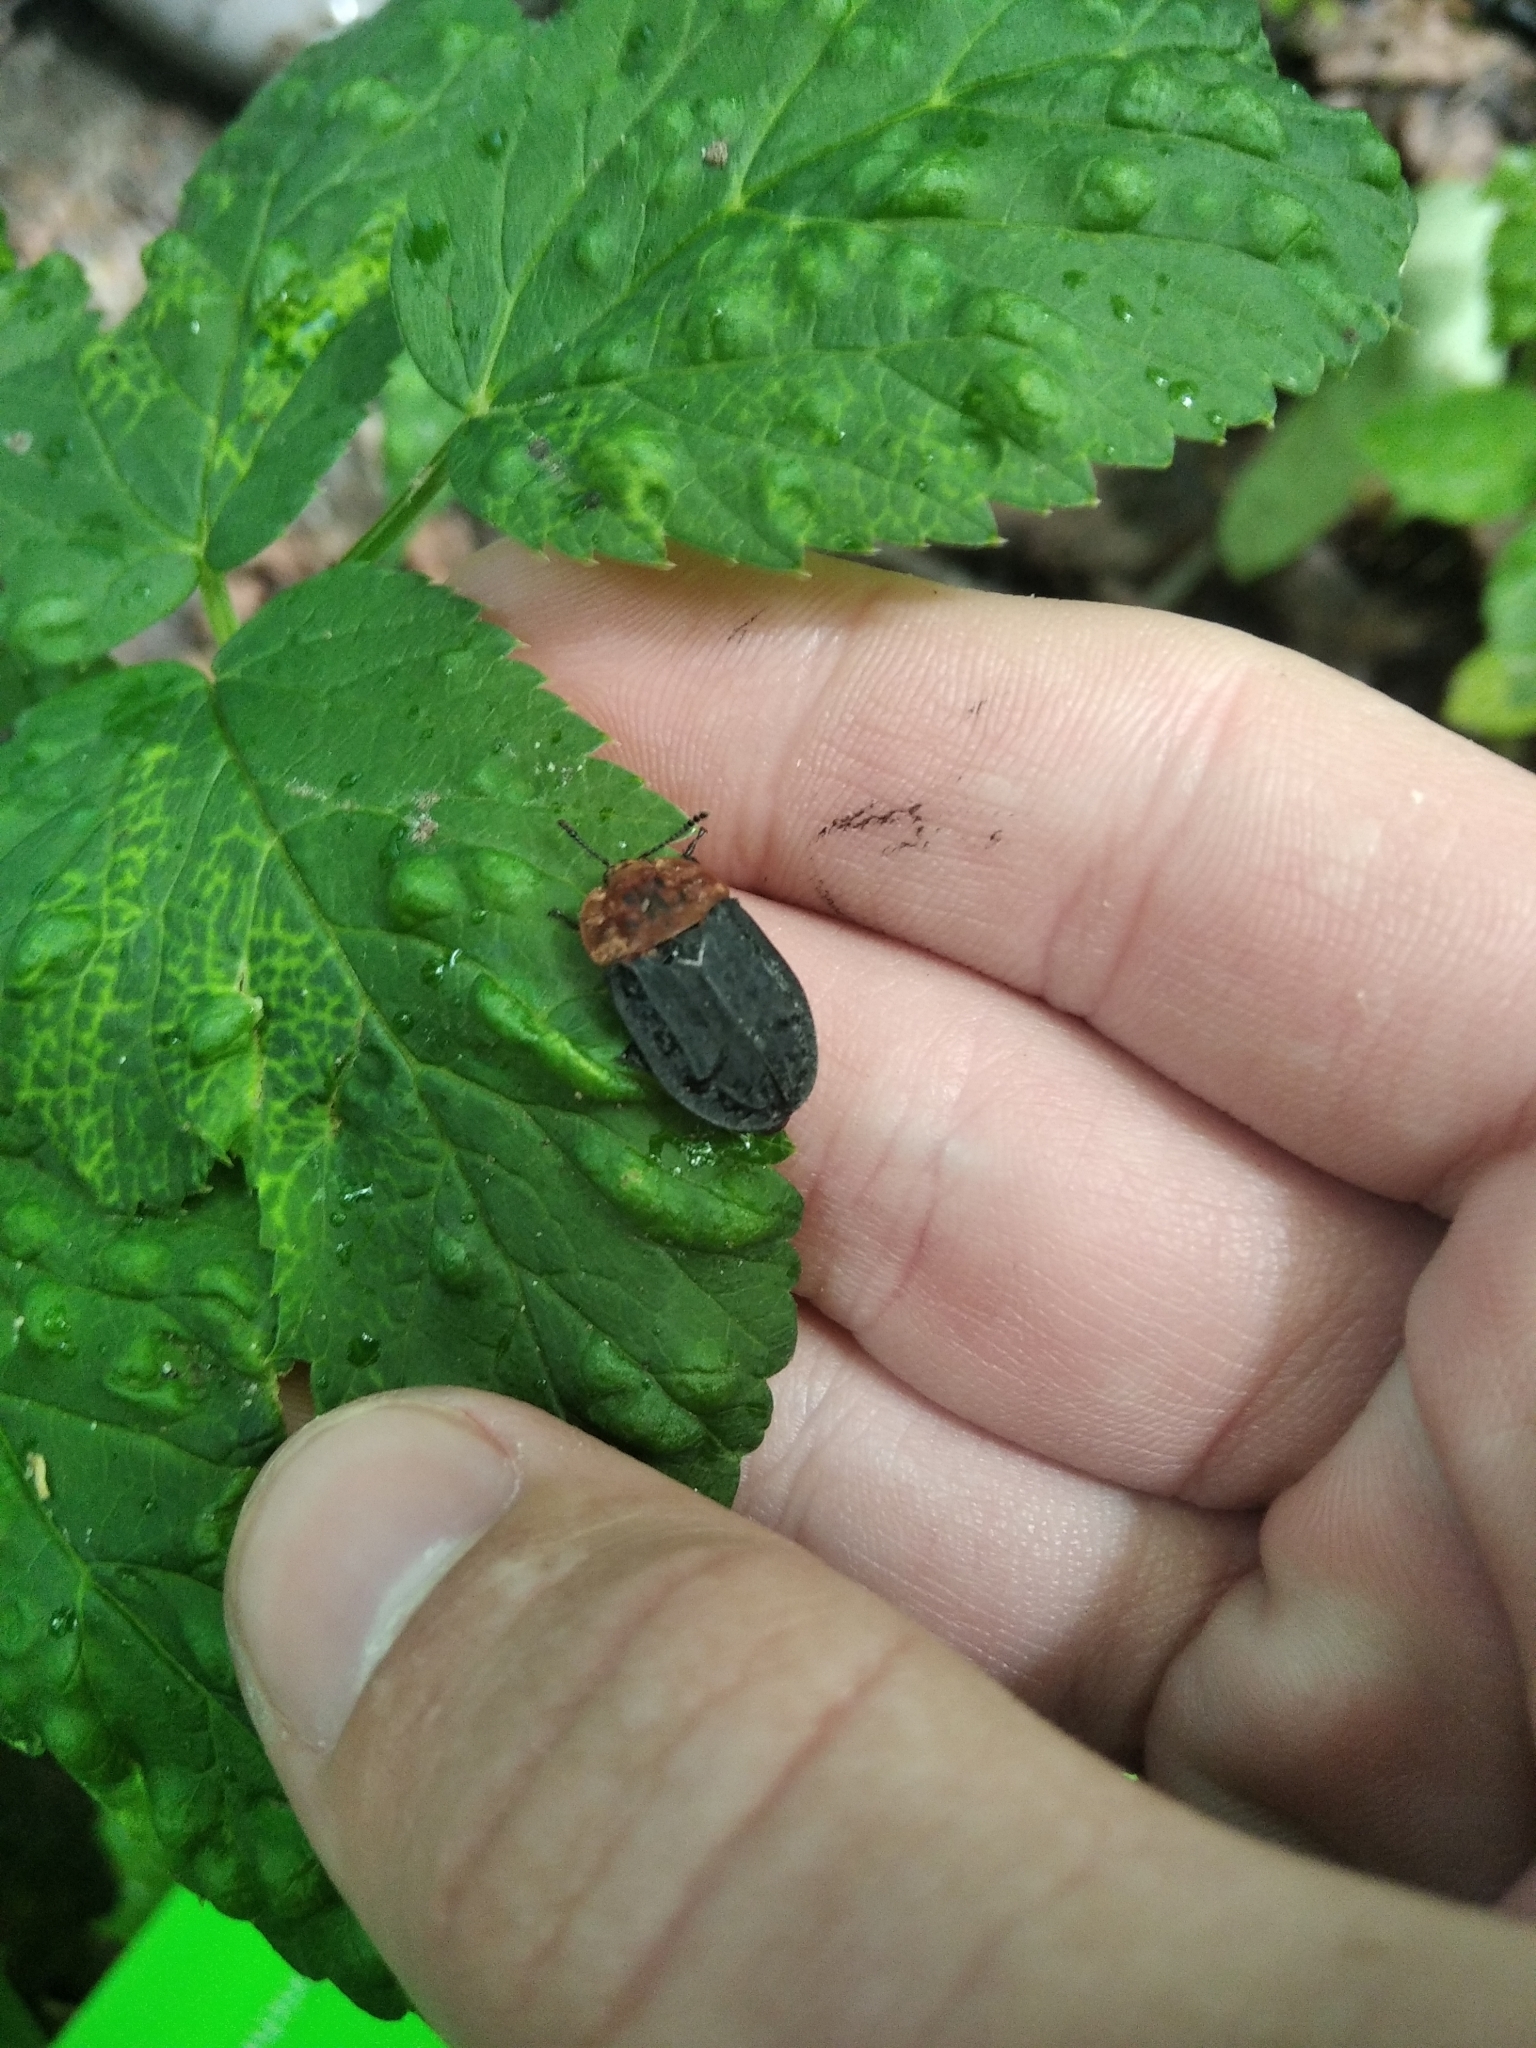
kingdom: Animalia
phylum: Arthropoda
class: Insecta
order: Coleoptera
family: Staphylinidae
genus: Oiceoptoma
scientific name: Oiceoptoma thoracicum
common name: Red-breasted carrion beetle
